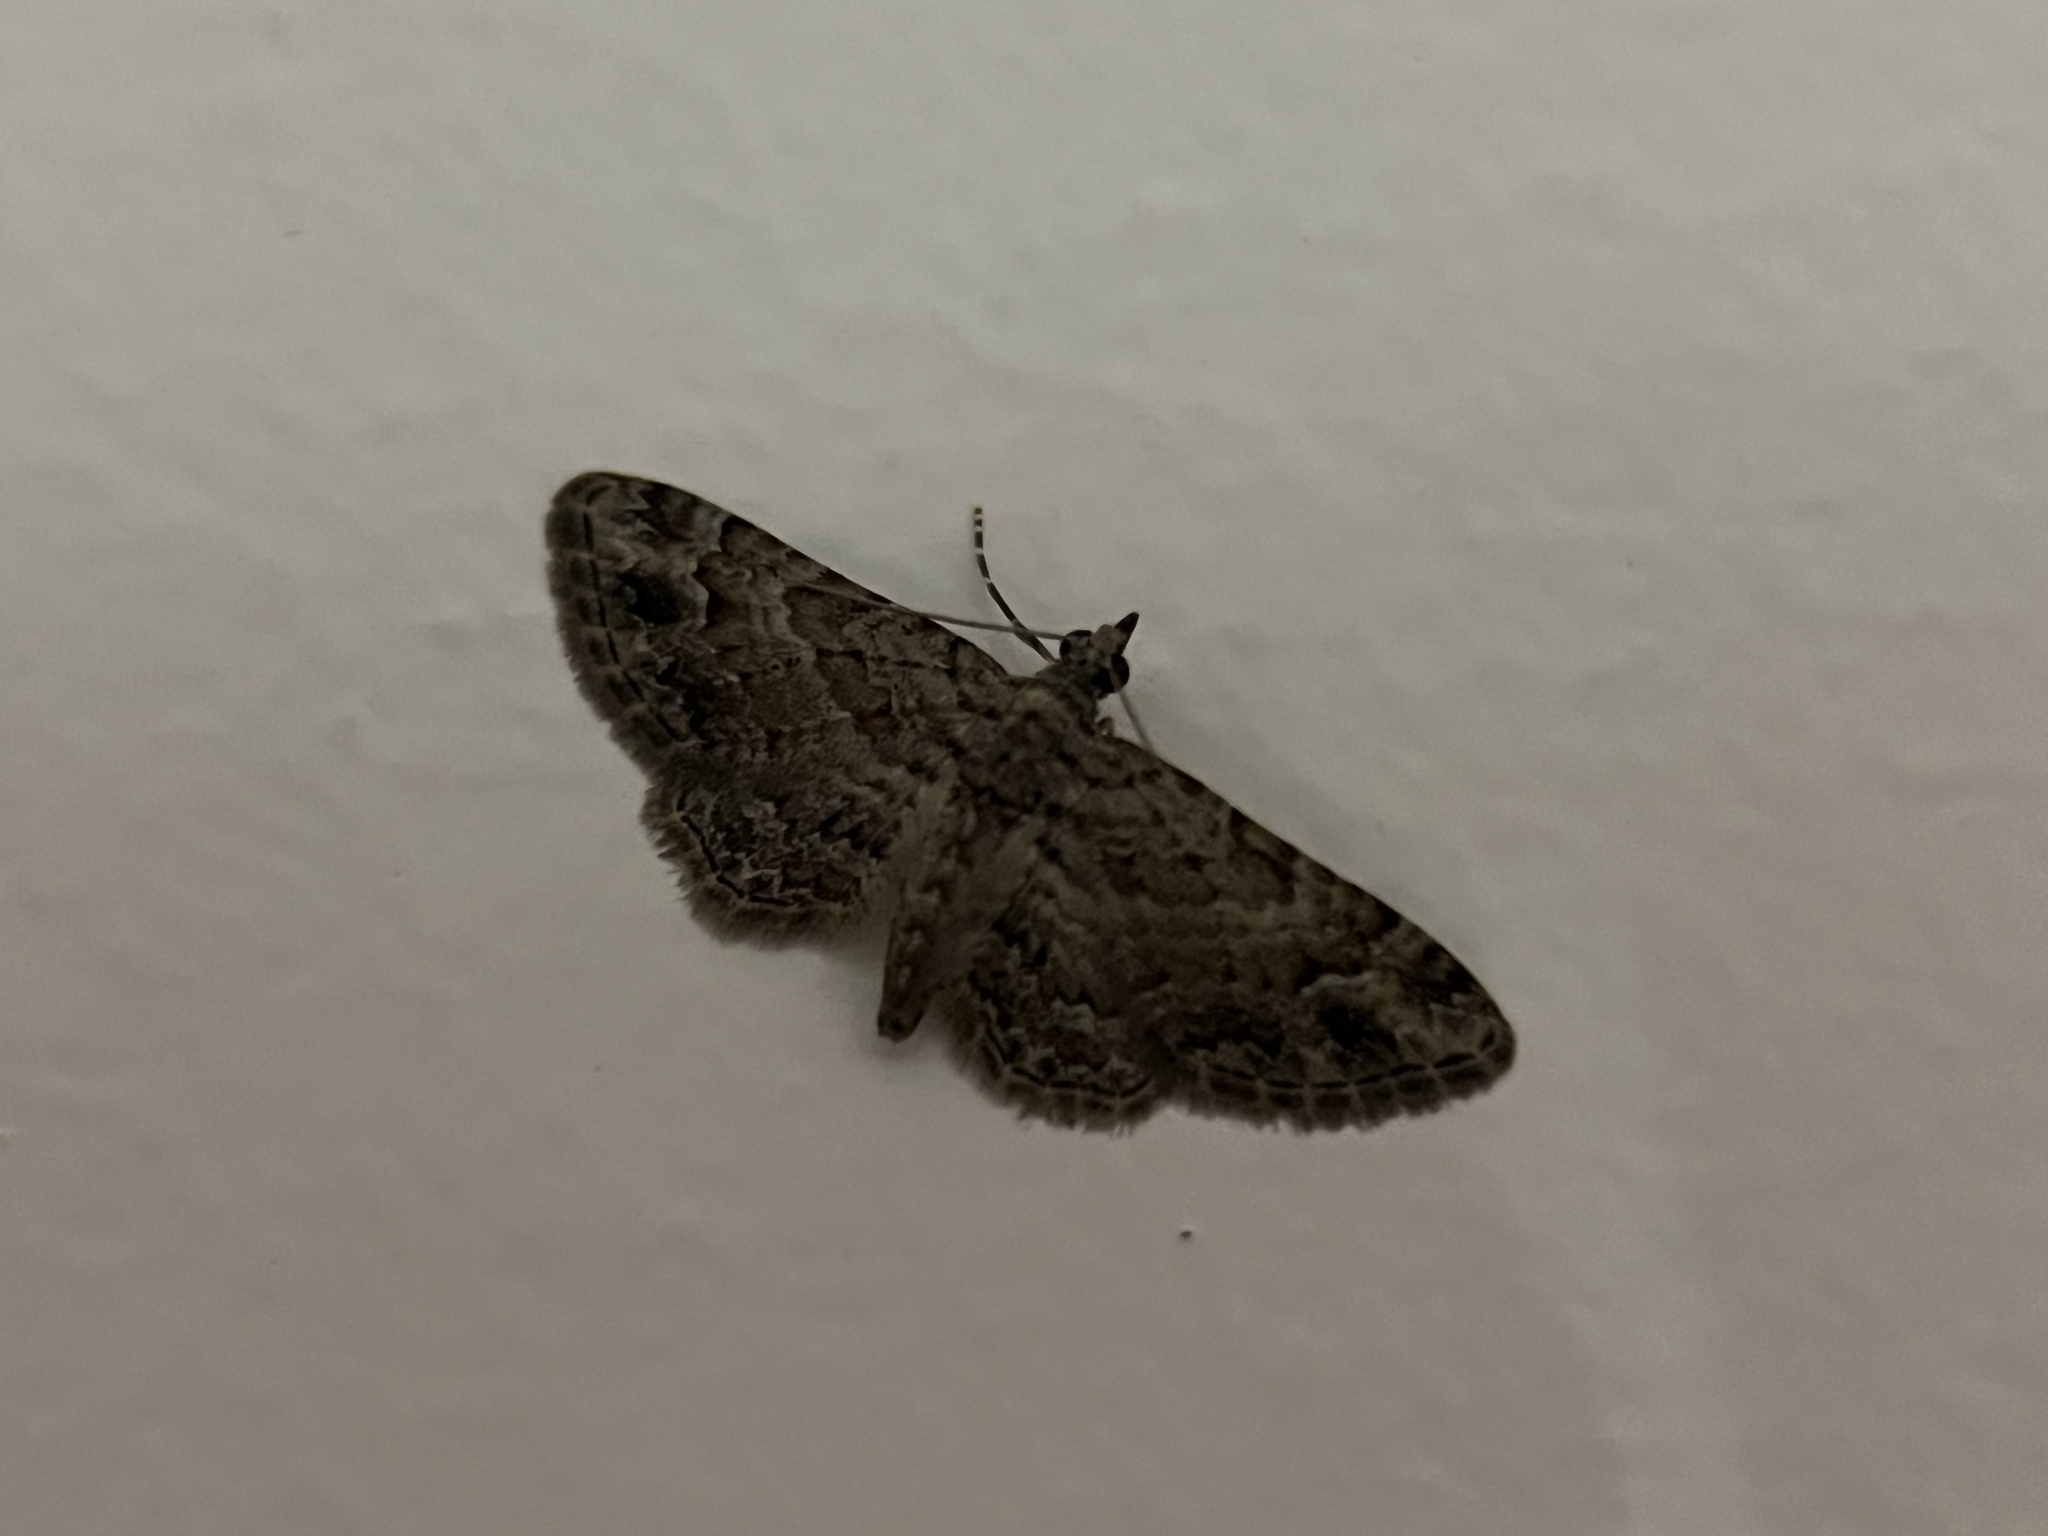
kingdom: Animalia
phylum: Arthropoda
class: Insecta
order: Lepidoptera
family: Geometridae
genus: Gymnoscelis
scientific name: Gymnoscelis rufifasciata
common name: Double-striped pug
